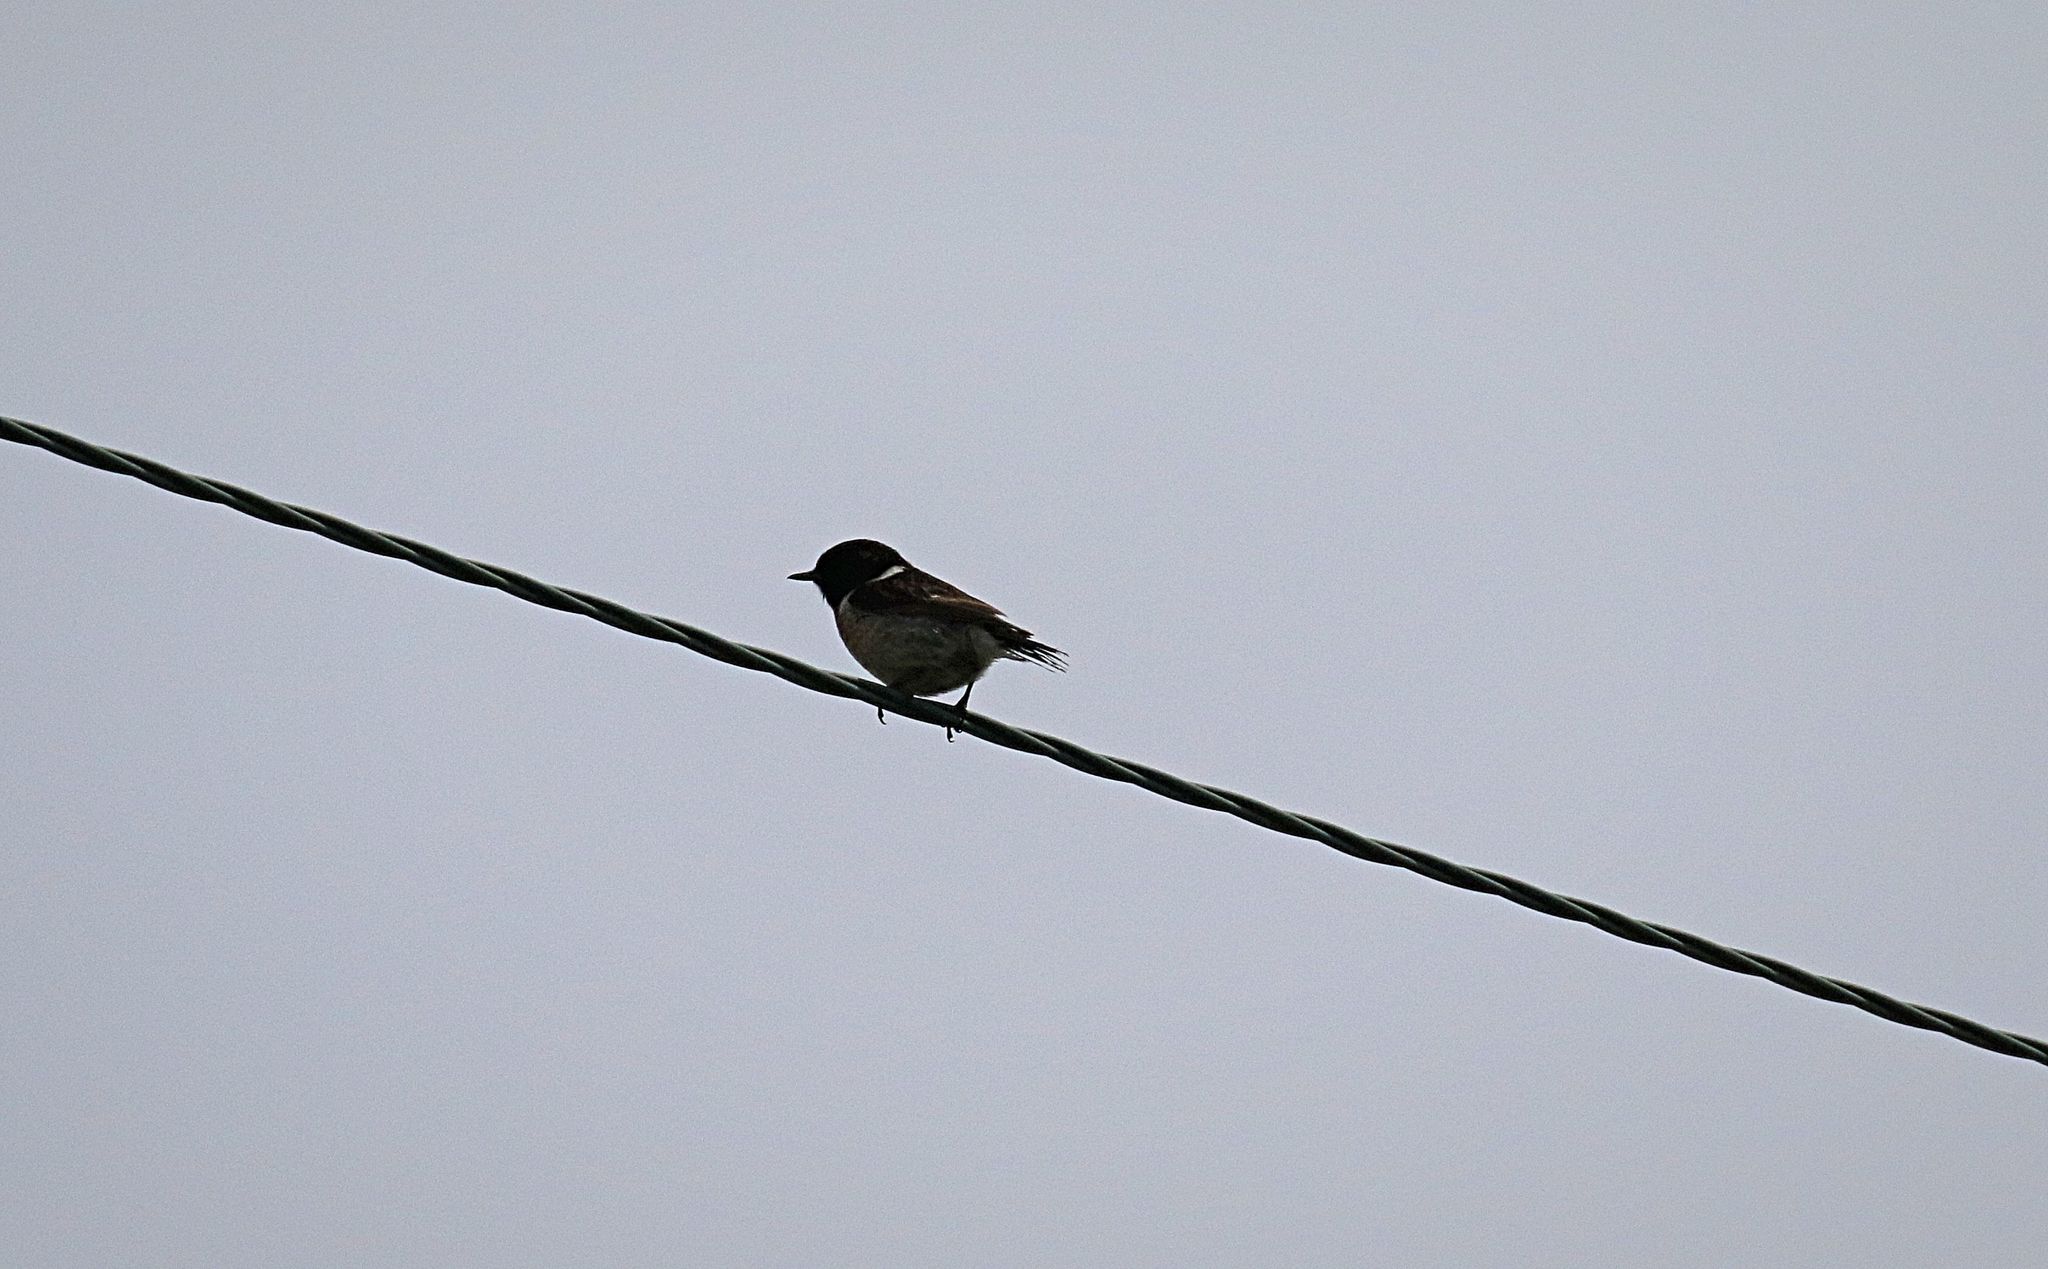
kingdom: Animalia
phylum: Chordata
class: Aves
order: Passeriformes
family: Muscicapidae
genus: Saxicola
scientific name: Saxicola rubicola
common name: European stonechat
